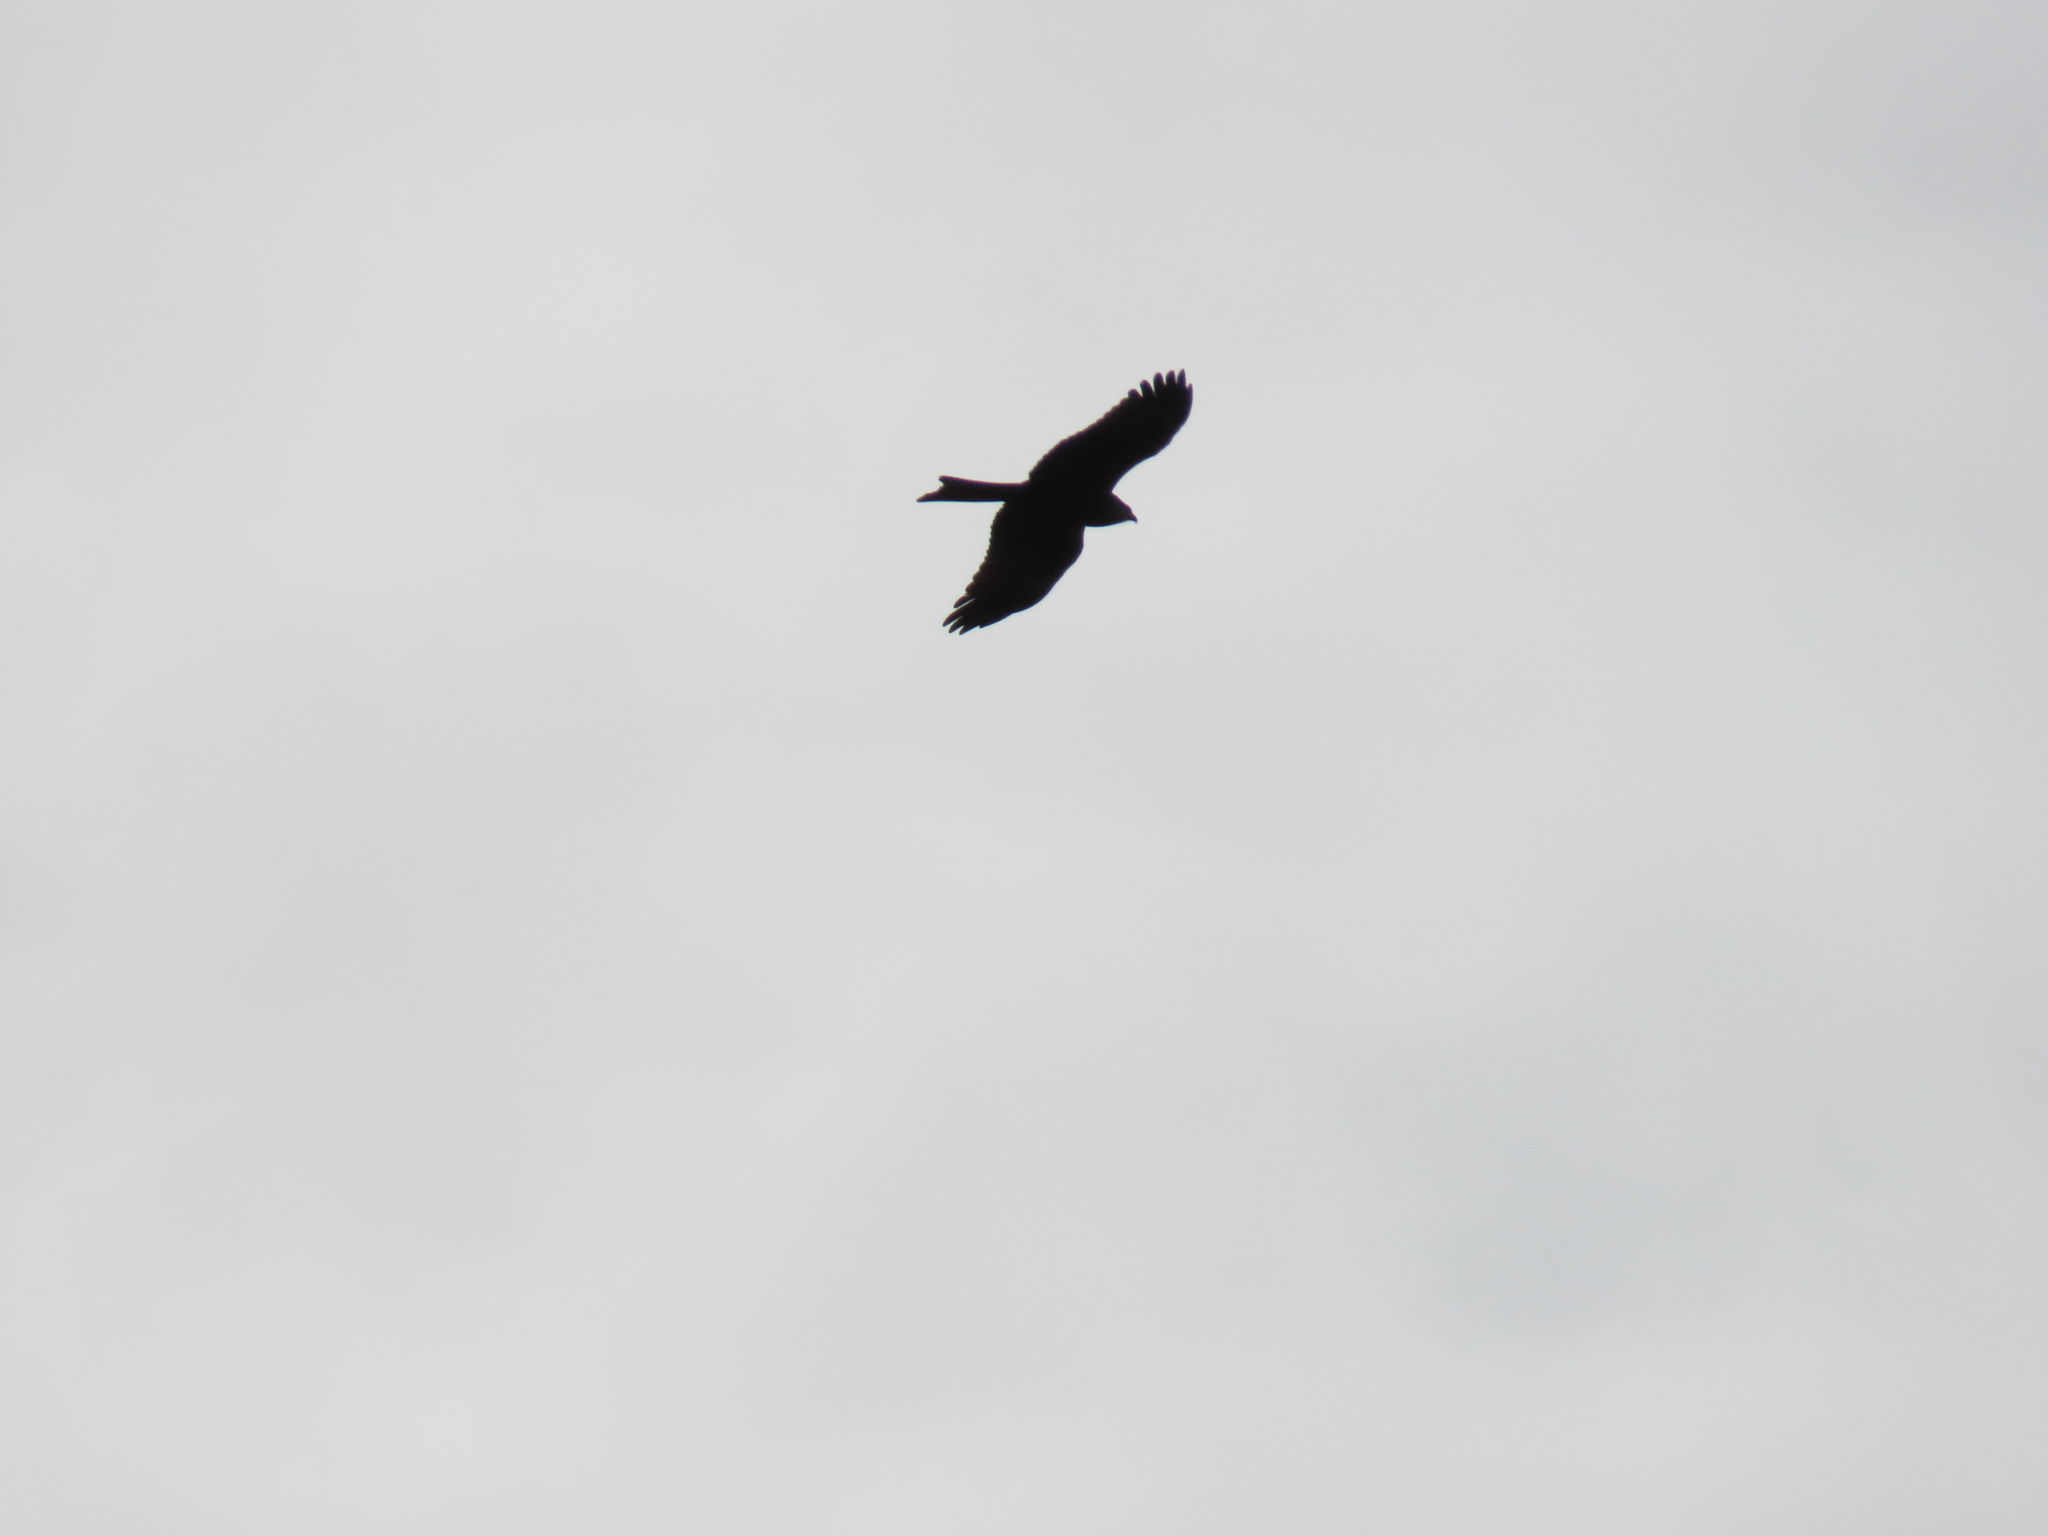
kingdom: Animalia
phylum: Chordata
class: Aves
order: Accipitriformes
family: Accipitridae
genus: Milvus
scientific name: Milvus migrans
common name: Black kite
